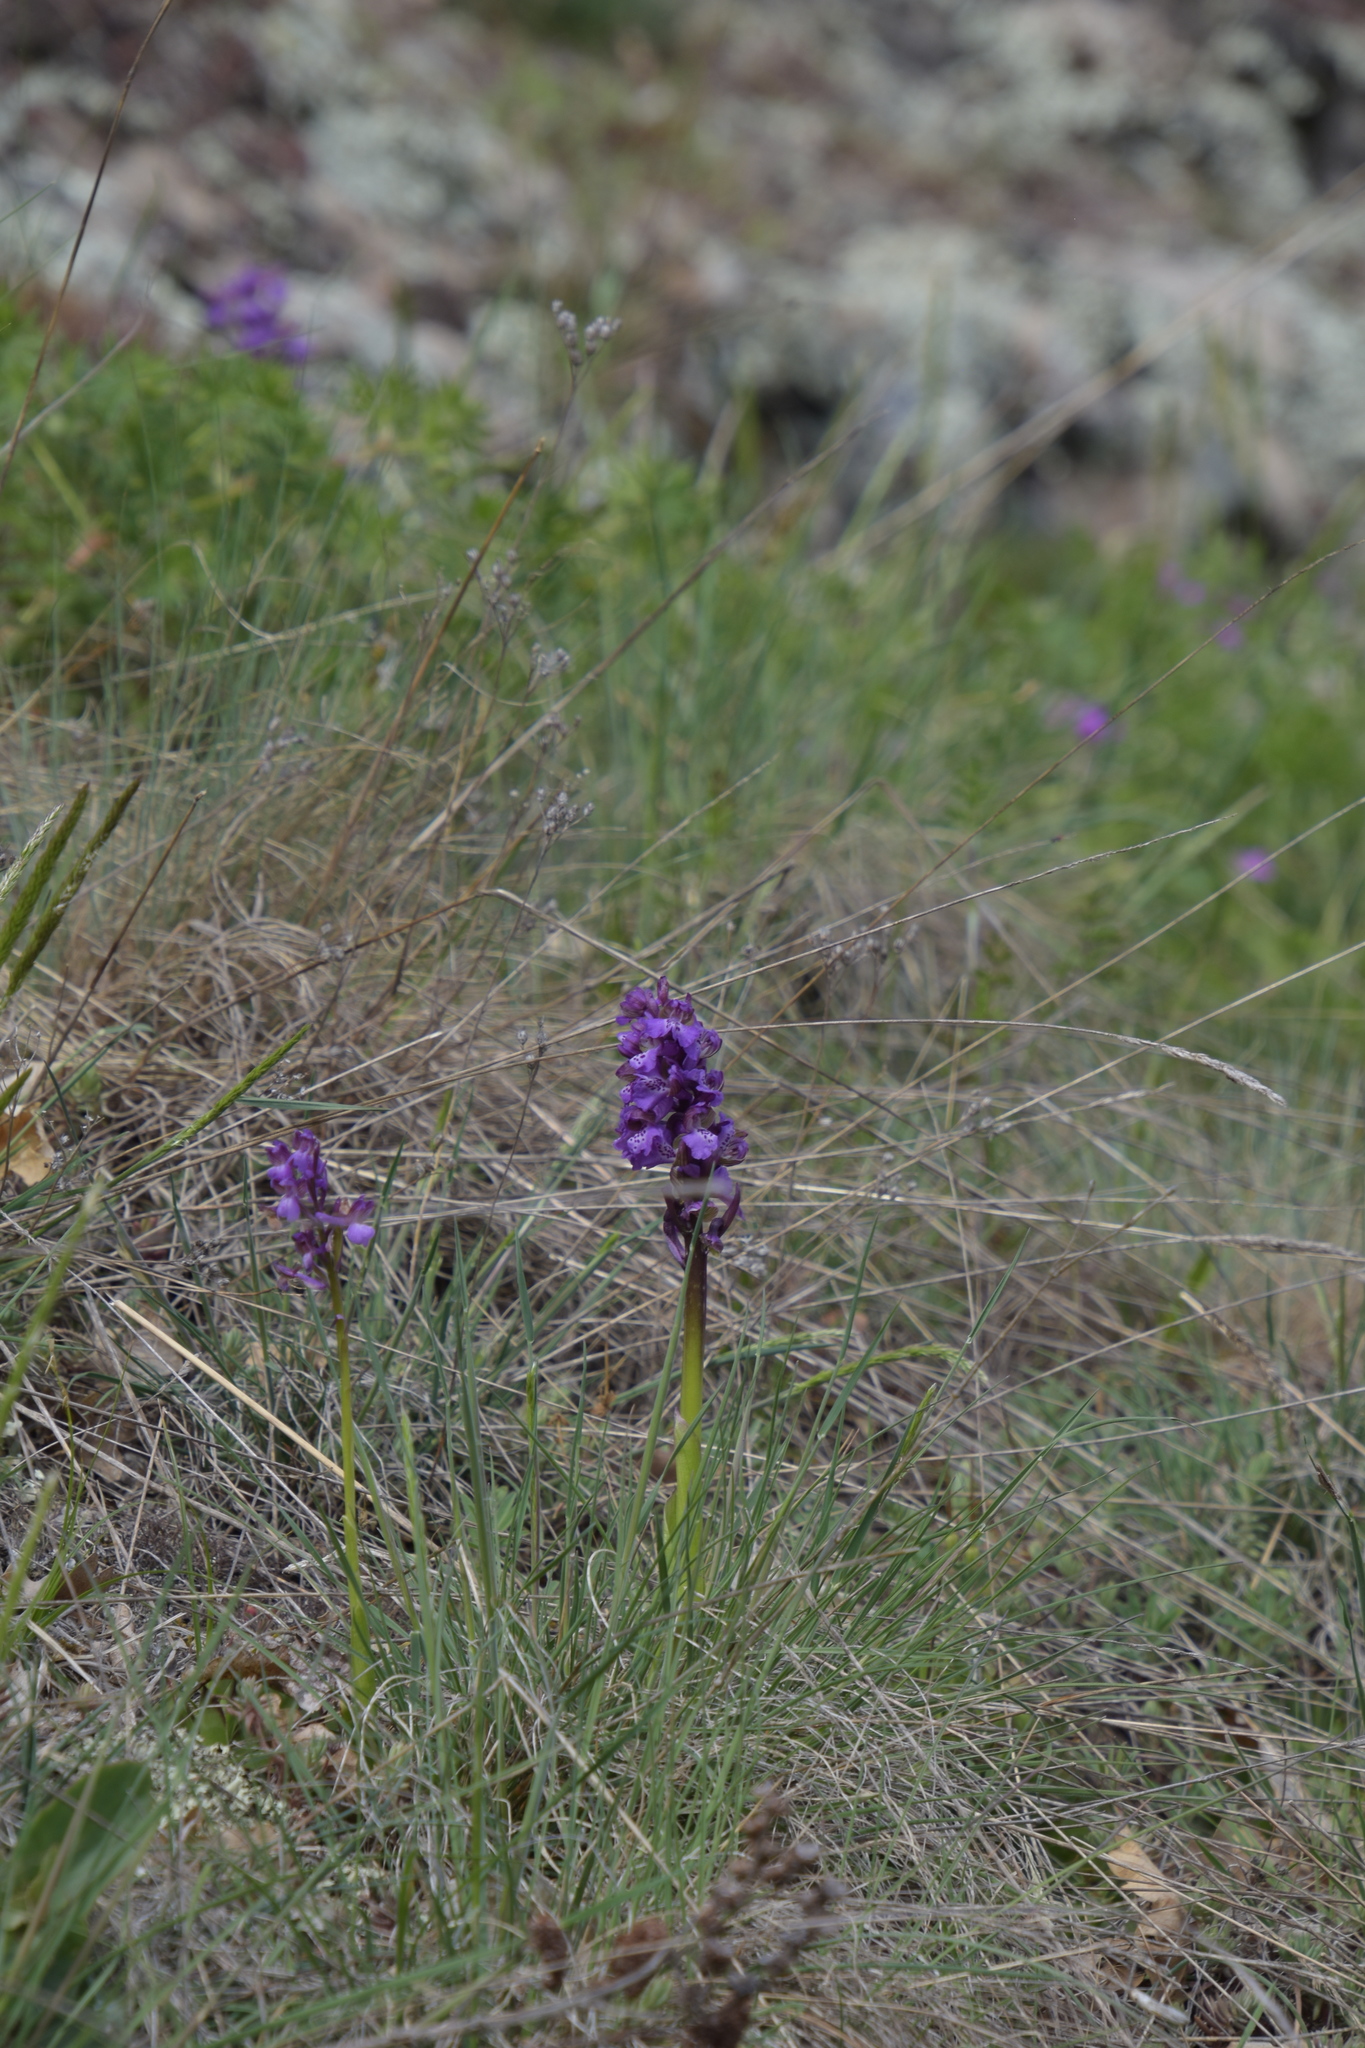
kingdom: Plantae
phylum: Tracheophyta
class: Liliopsida
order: Asparagales
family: Orchidaceae
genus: Anacamptis
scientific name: Anacamptis morio
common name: Green-winged orchid
